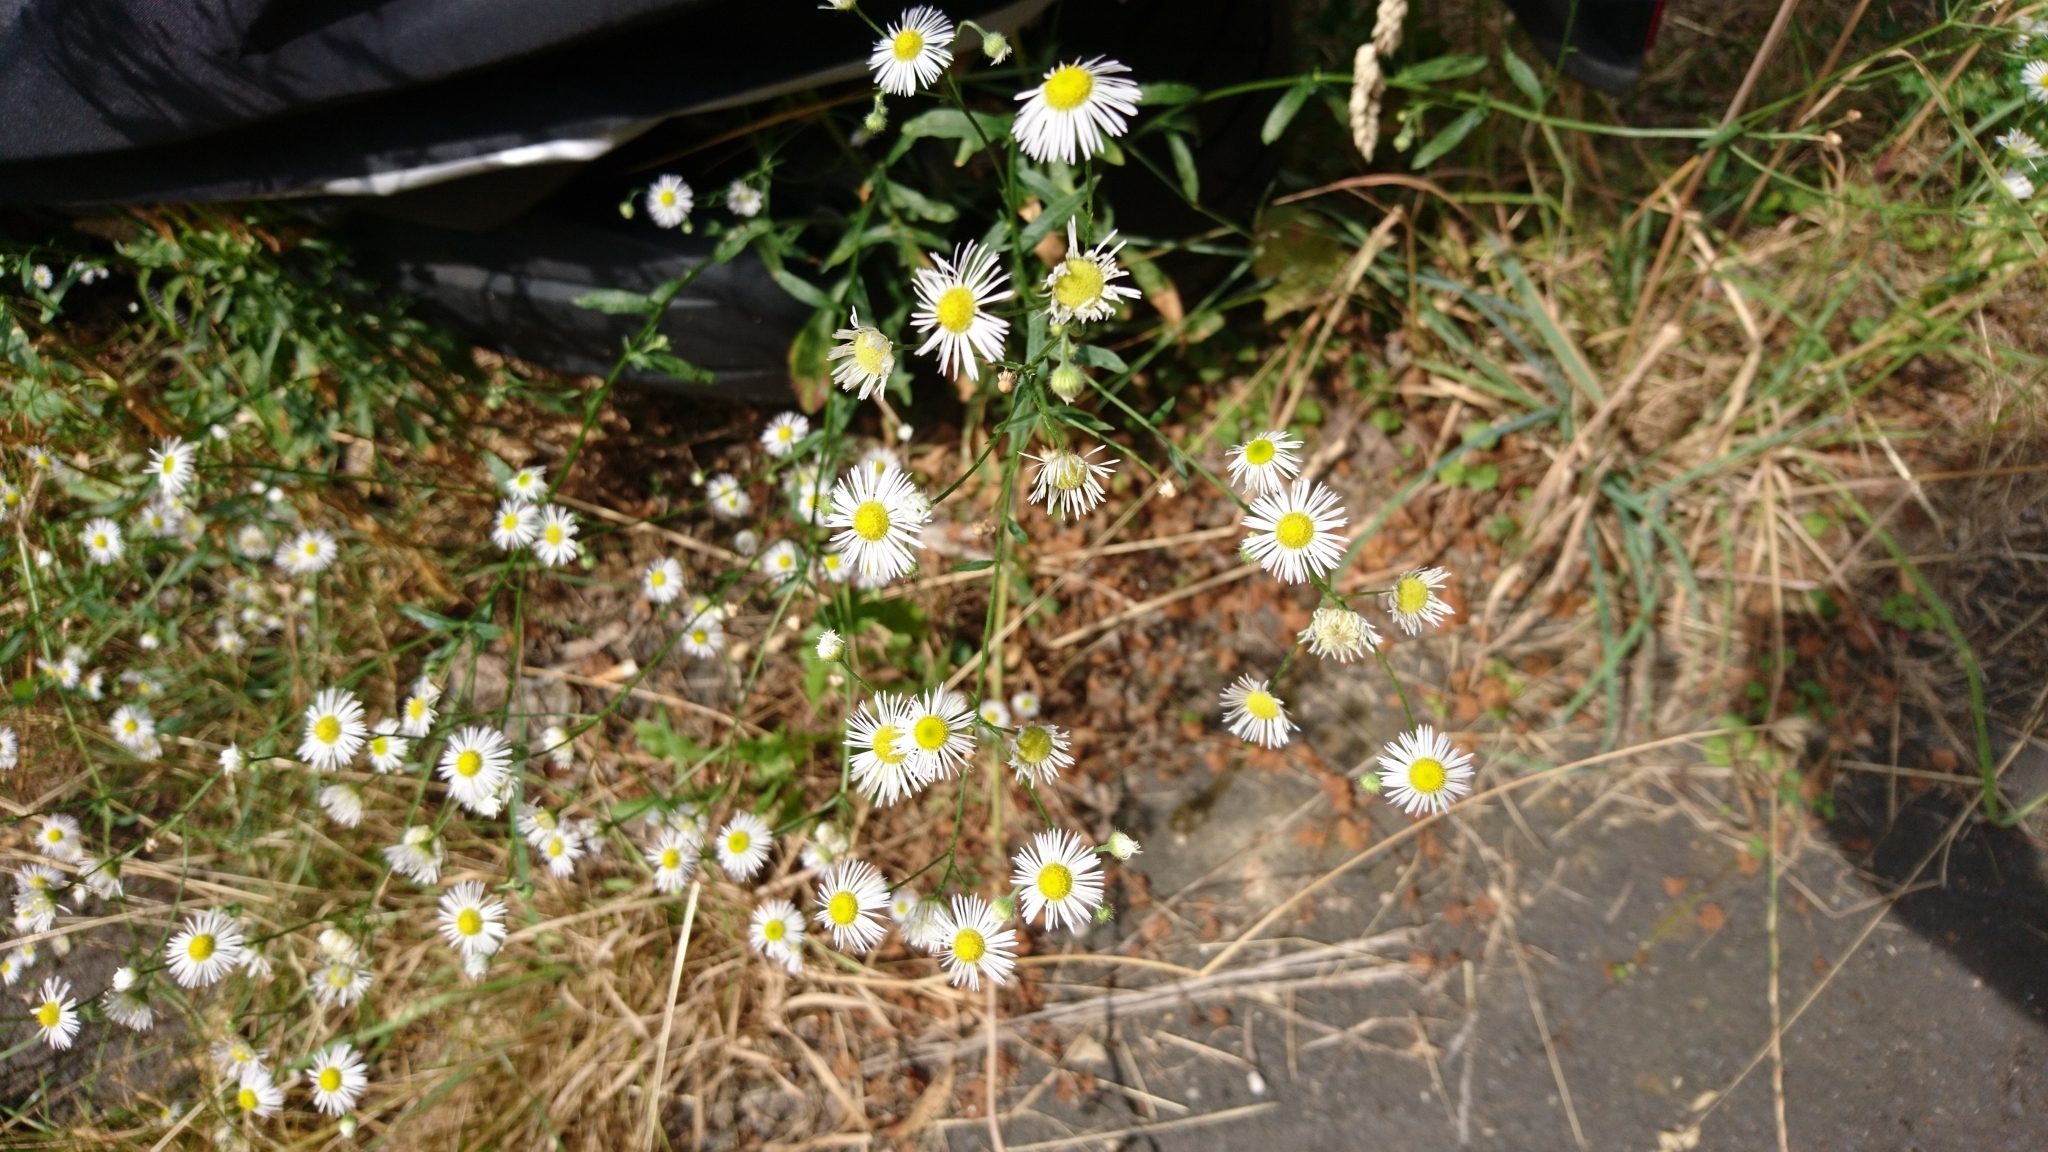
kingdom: Plantae
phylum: Tracheophyta
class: Magnoliopsida
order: Asterales
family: Asteraceae
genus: Erigeron
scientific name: Erigeron annuus
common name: Tall fleabane
